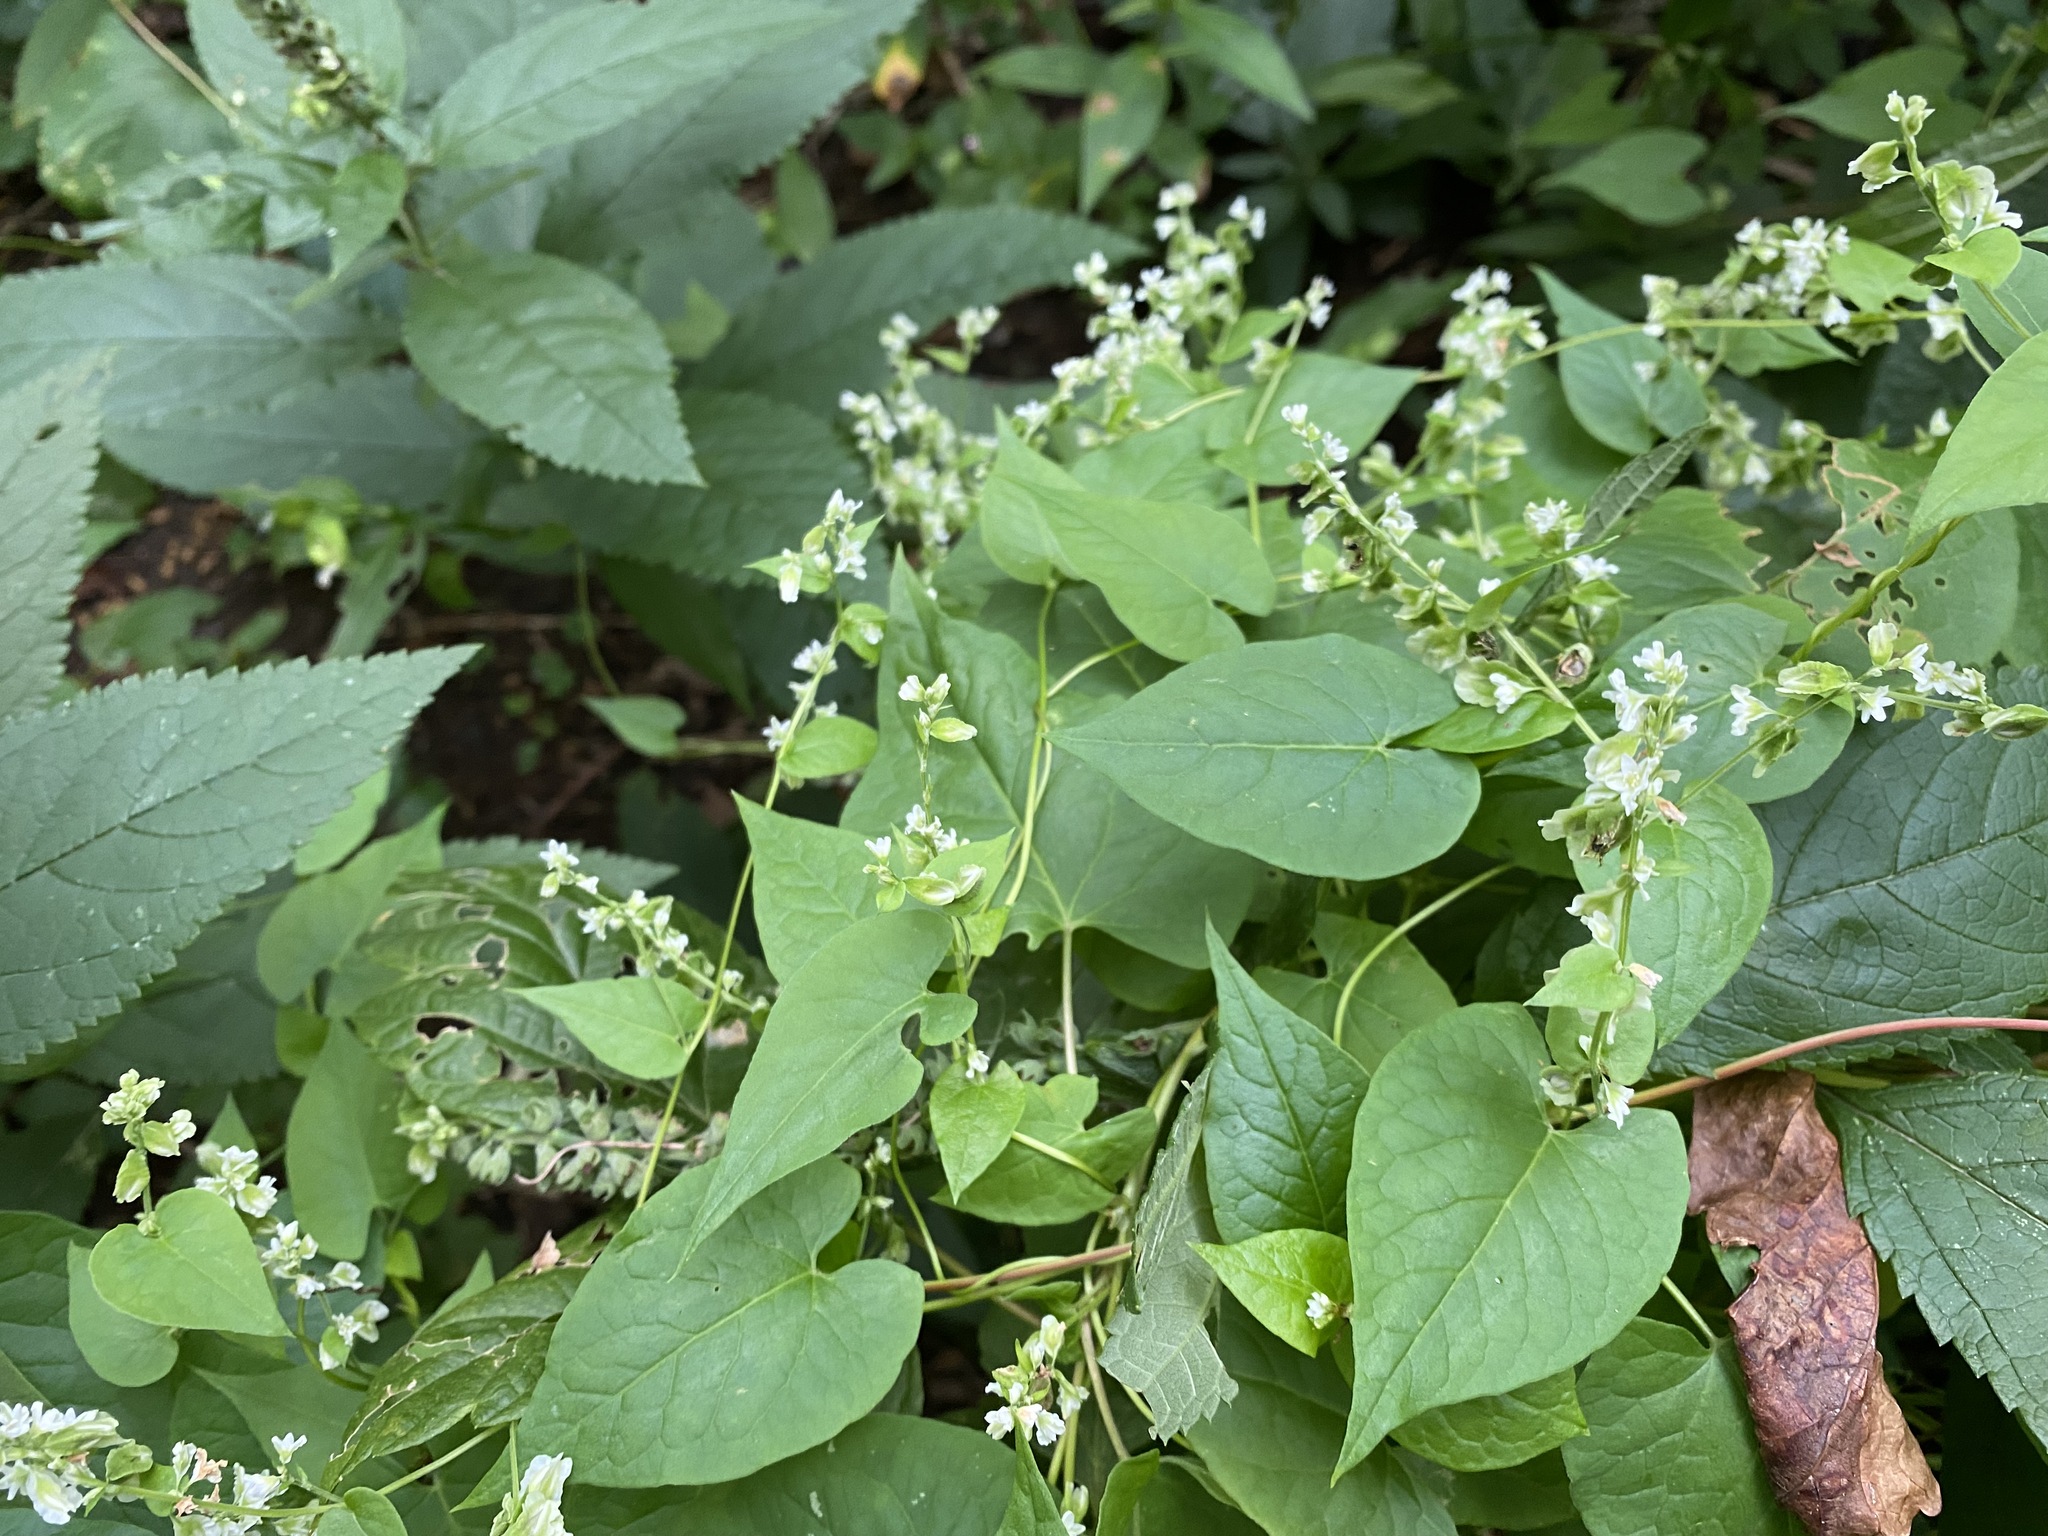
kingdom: Plantae
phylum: Tracheophyta
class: Magnoliopsida
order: Caryophyllales
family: Polygonaceae
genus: Fallopia
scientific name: Fallopia scandens
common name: Climbing false buckwheat
